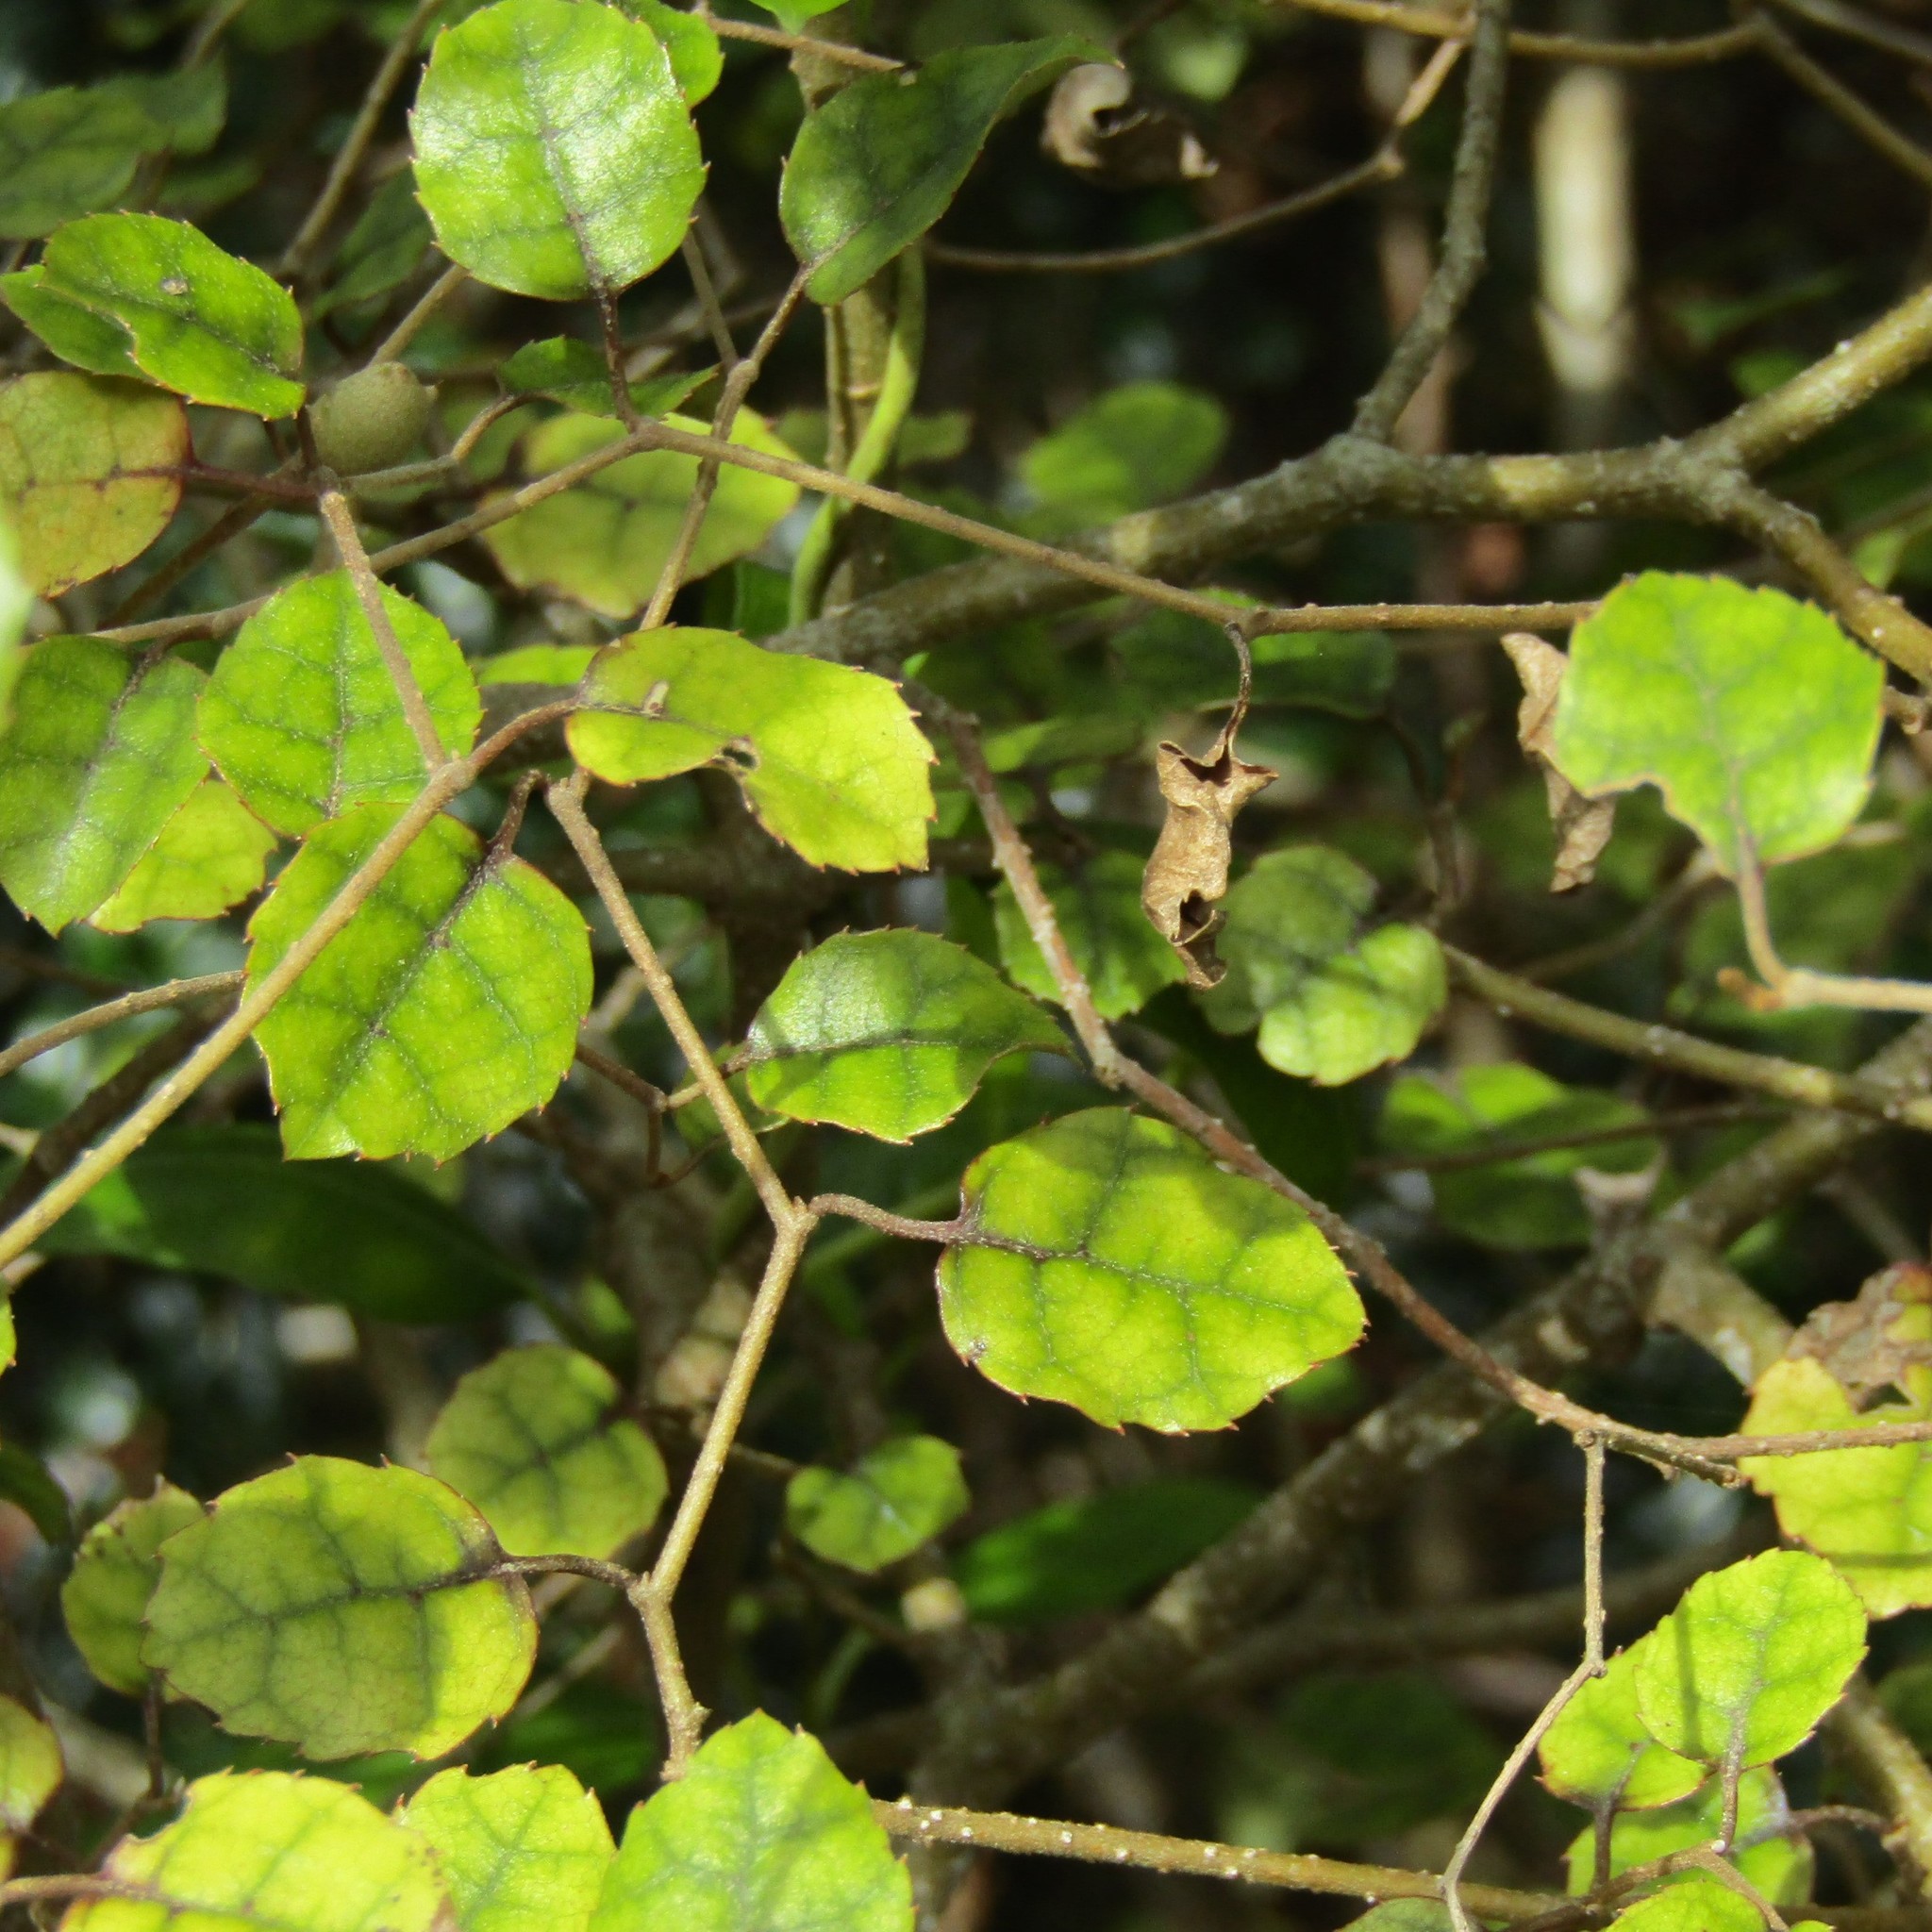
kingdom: Plantae
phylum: Tracheophyta
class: Magnoliopsida
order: Asterales
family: Rousseaceae
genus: Carpodetus
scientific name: Carpodetus serratus
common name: White mapau
